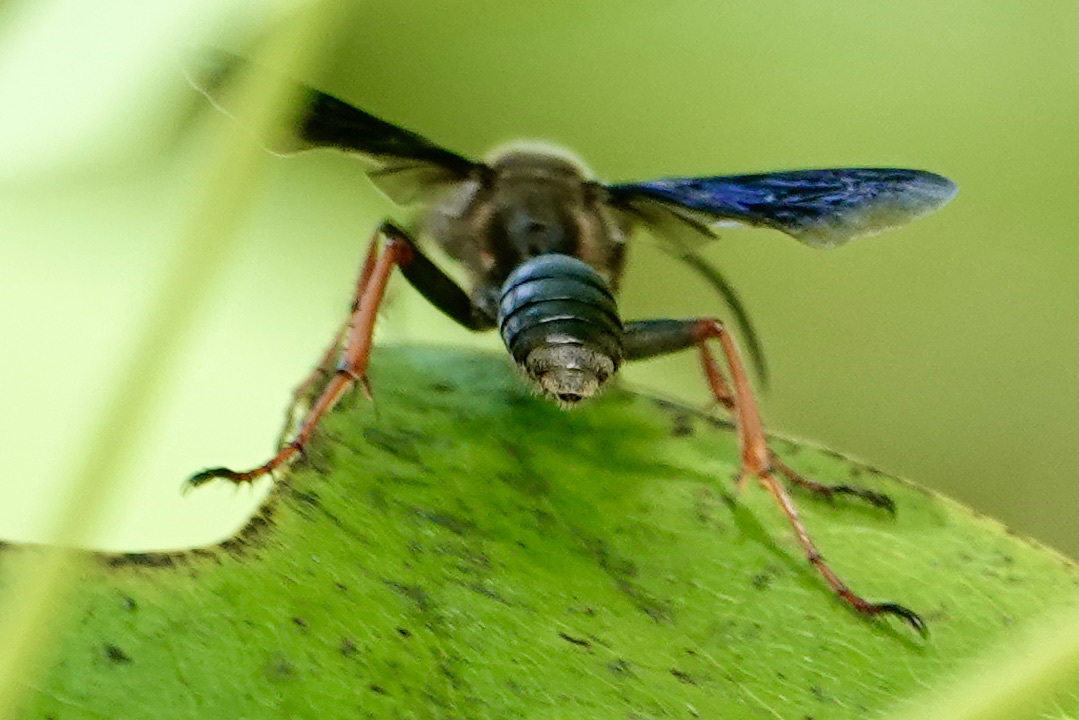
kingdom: Animalia
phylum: Arthropoda
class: Insecta
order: Hymenoptera
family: Sphecidae
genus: Isodontia
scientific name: Isodontia auripes
